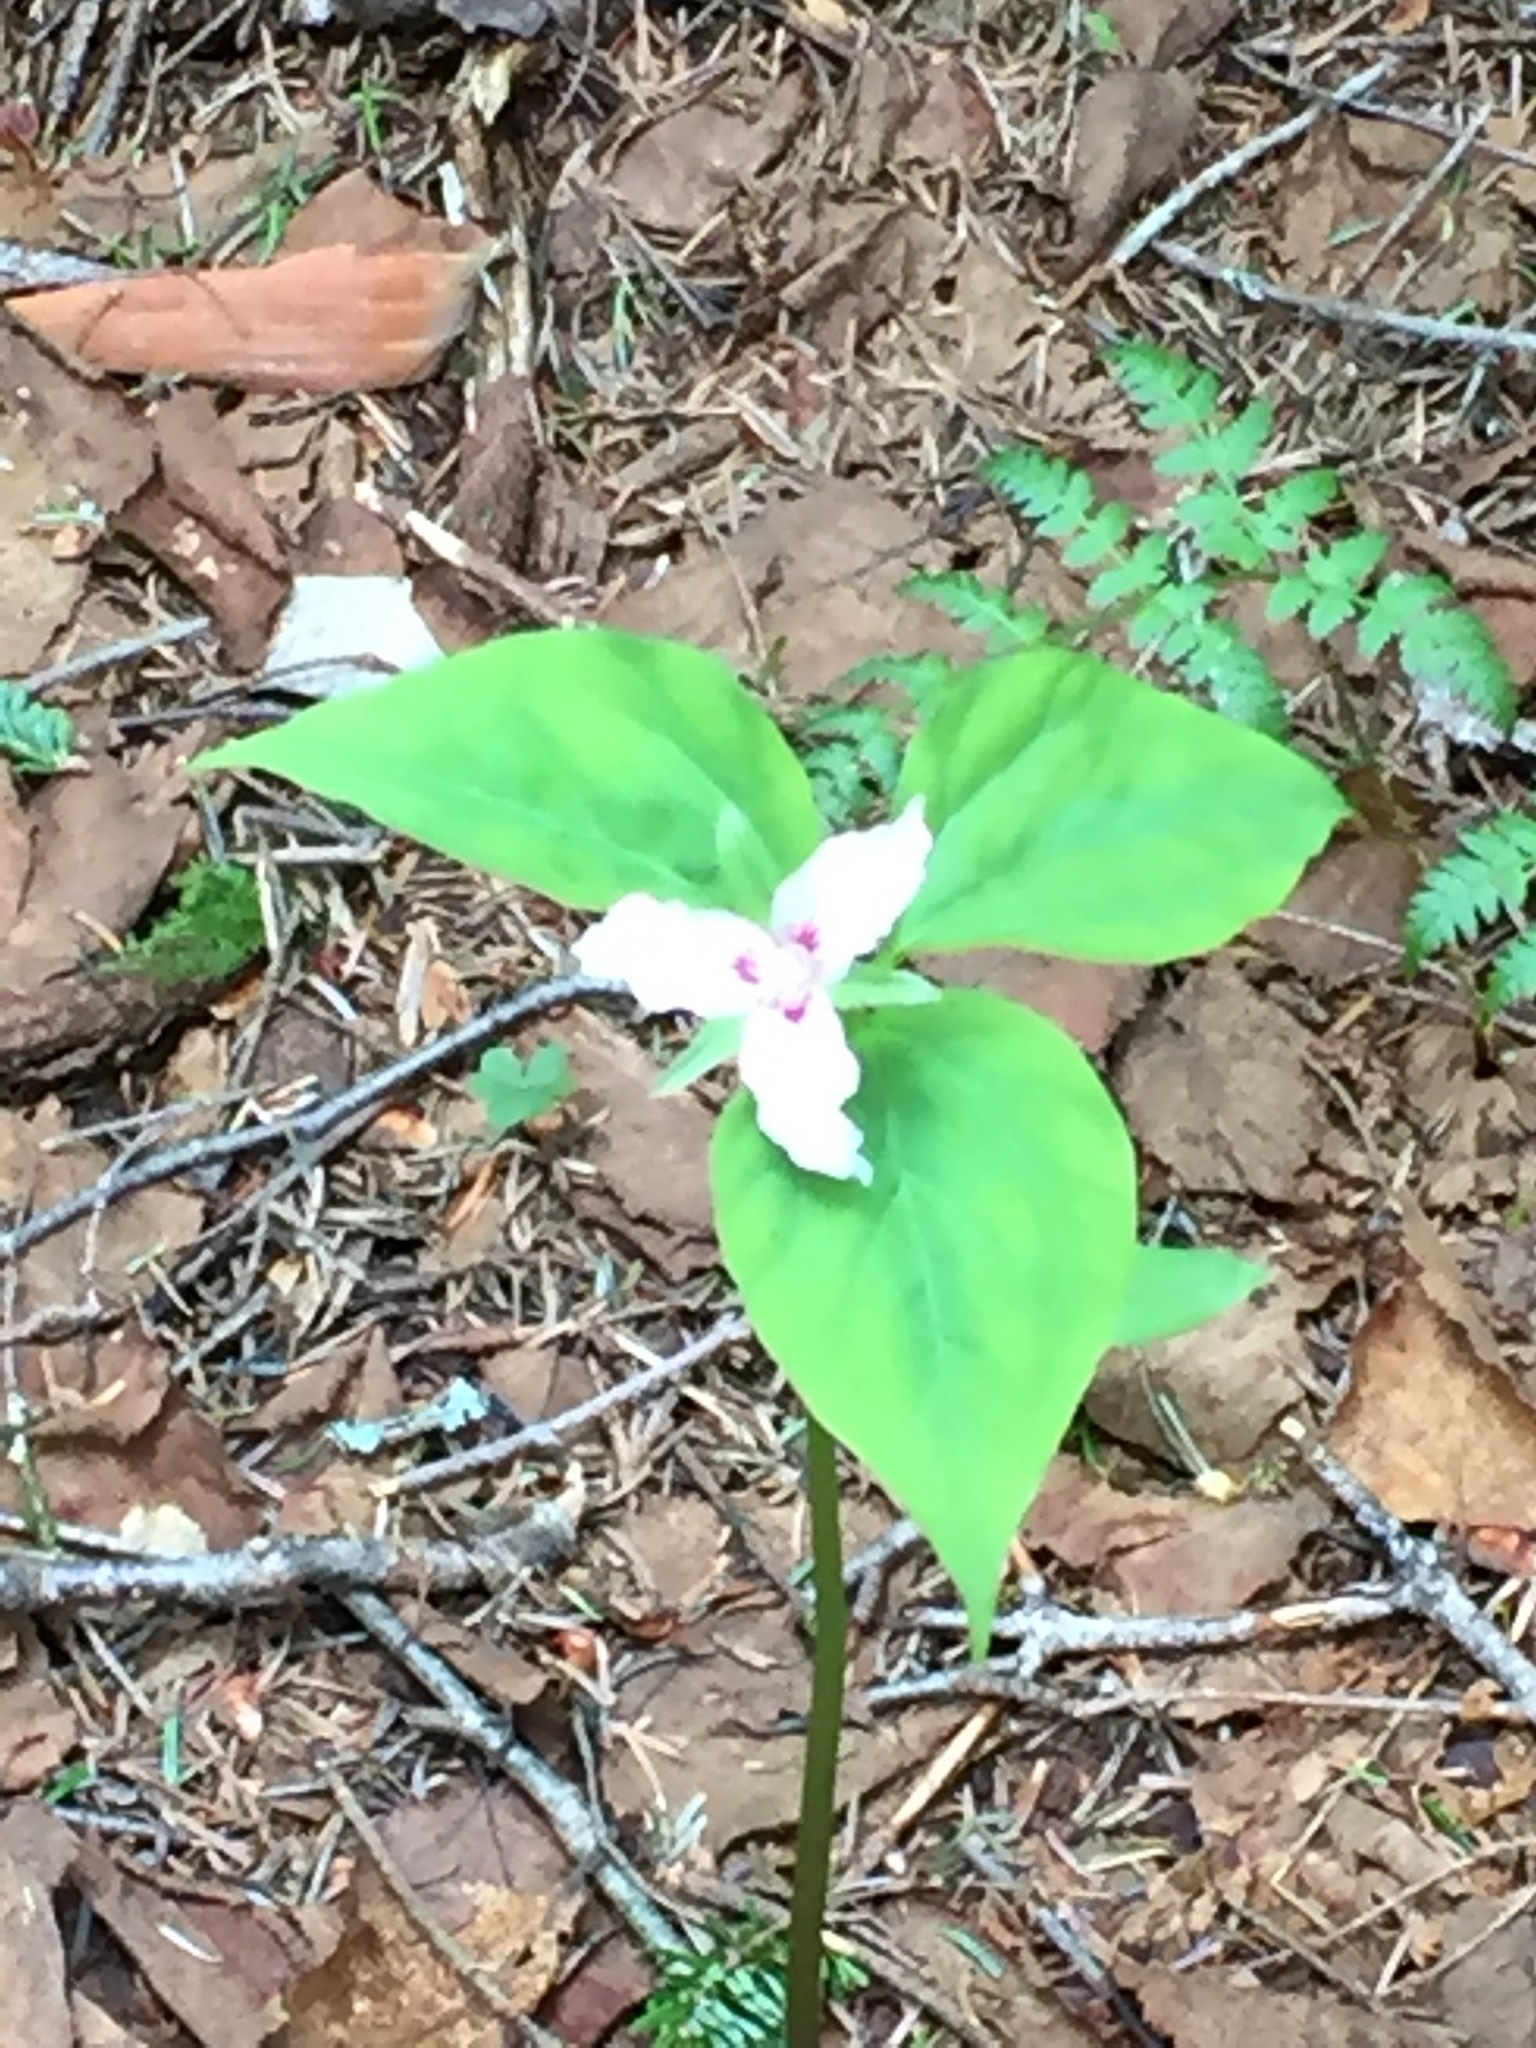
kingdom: Plantae
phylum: Tracheophyta
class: Liliopsida
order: Liliales
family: Melanthiaceae
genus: Trillium
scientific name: Trillium undulatum
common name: Paint trillium
